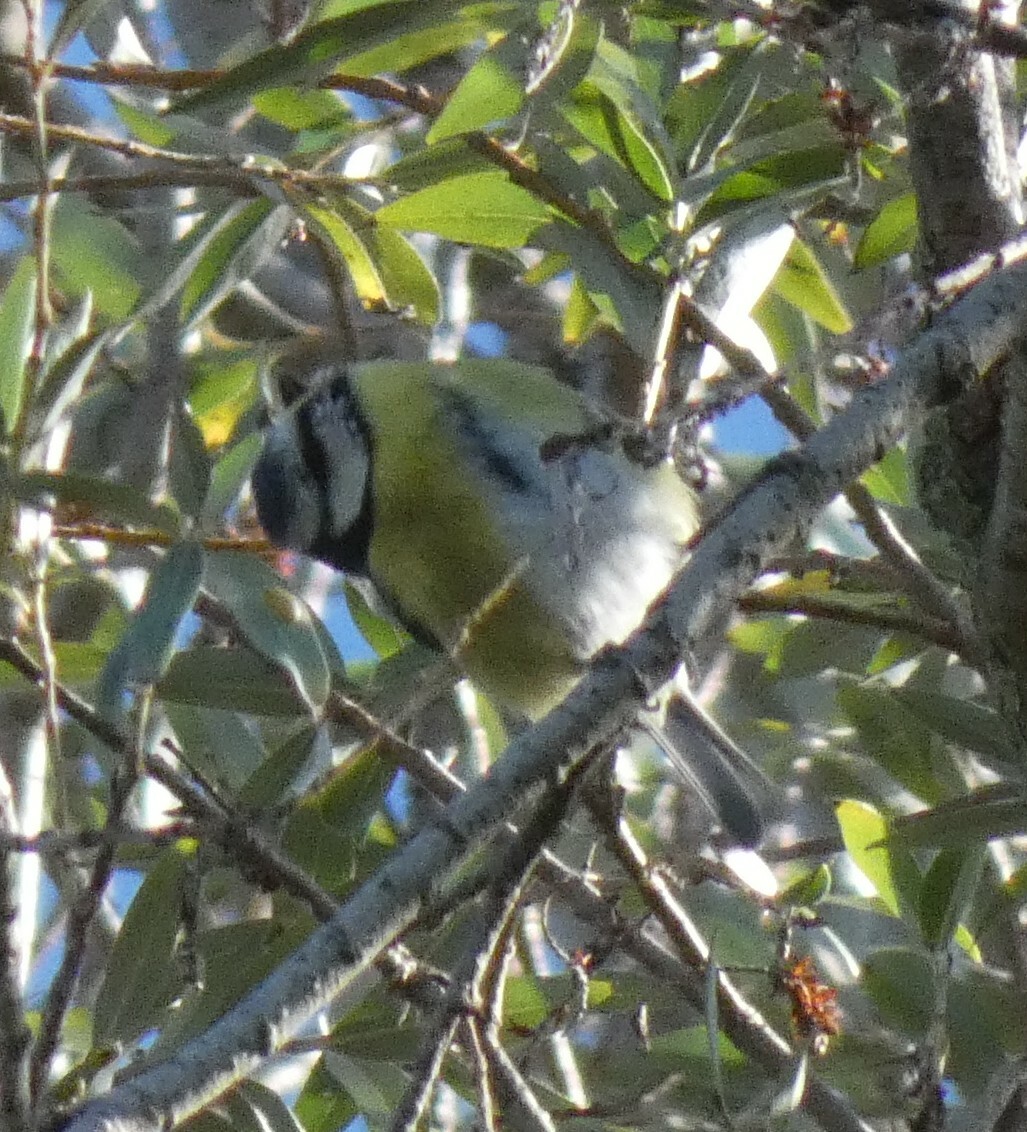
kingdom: Animalia
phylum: Chordata
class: Aves
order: Passeriformes
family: Paridae
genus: Cyanistes
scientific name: Cyanistes caeruleus
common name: Eurasian blue tit
